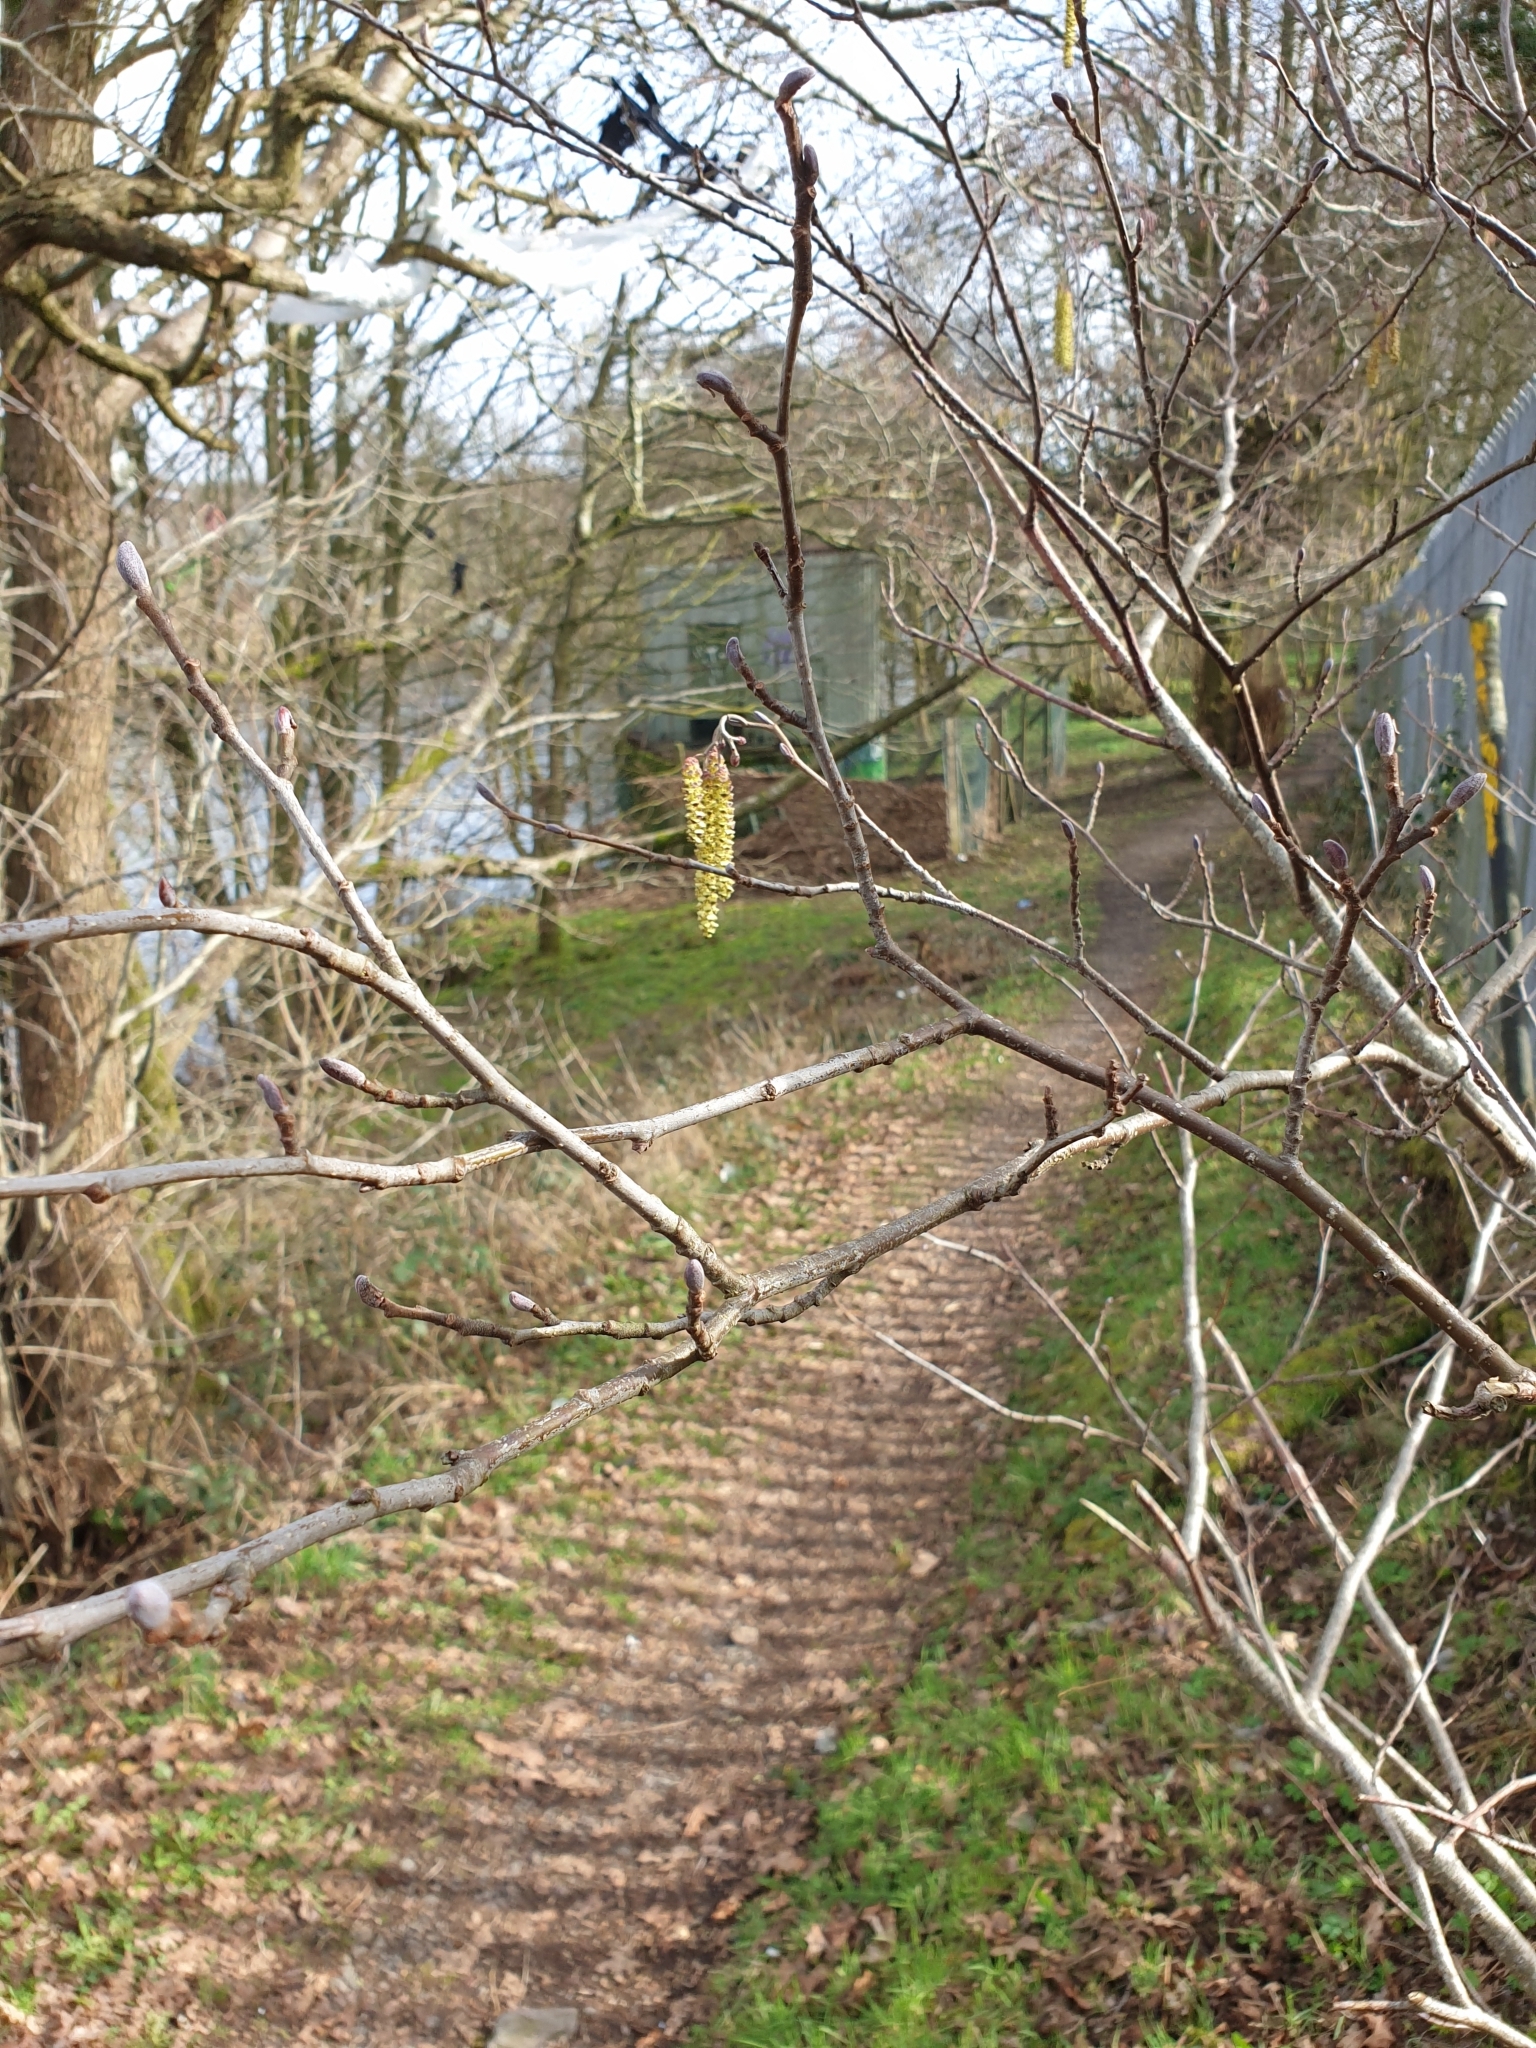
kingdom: Plantae
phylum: Tracheophyta
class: Magnoliopsida
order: Fagales
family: Betulaceae
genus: Alnus
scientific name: Alnus glutinosa
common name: Black alder
